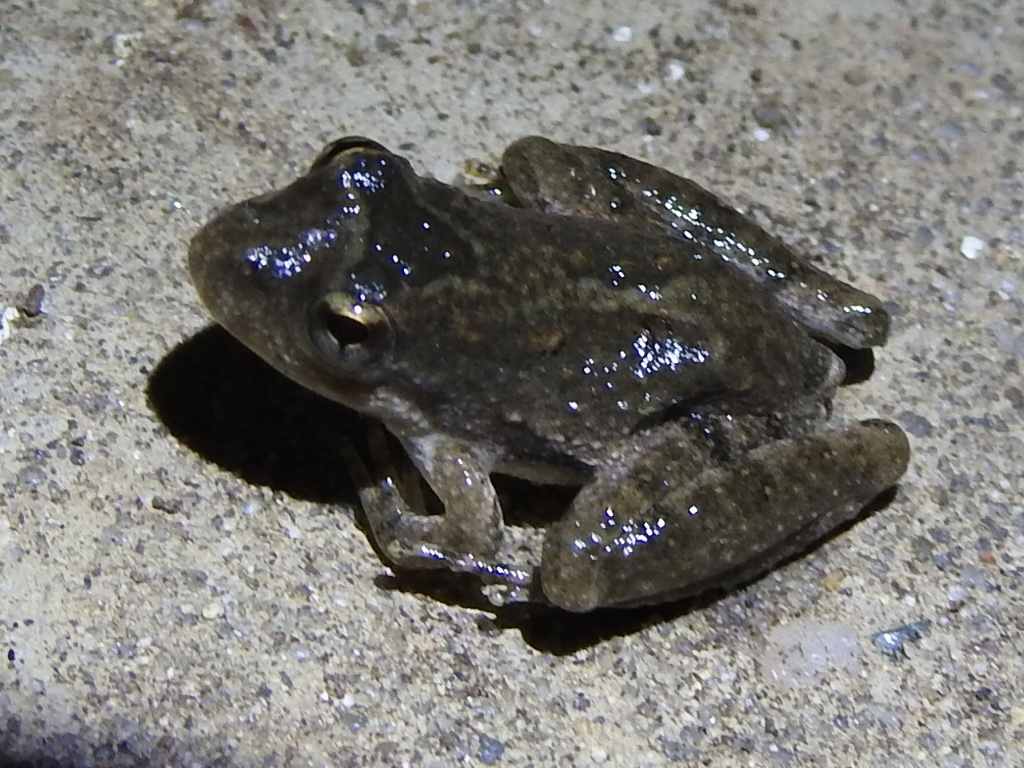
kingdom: Animalia
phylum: Chordata
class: Amphibia
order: Anura
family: Hylidae
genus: Acris
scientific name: Acris blanchardi
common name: Blanchard's cricket frog
